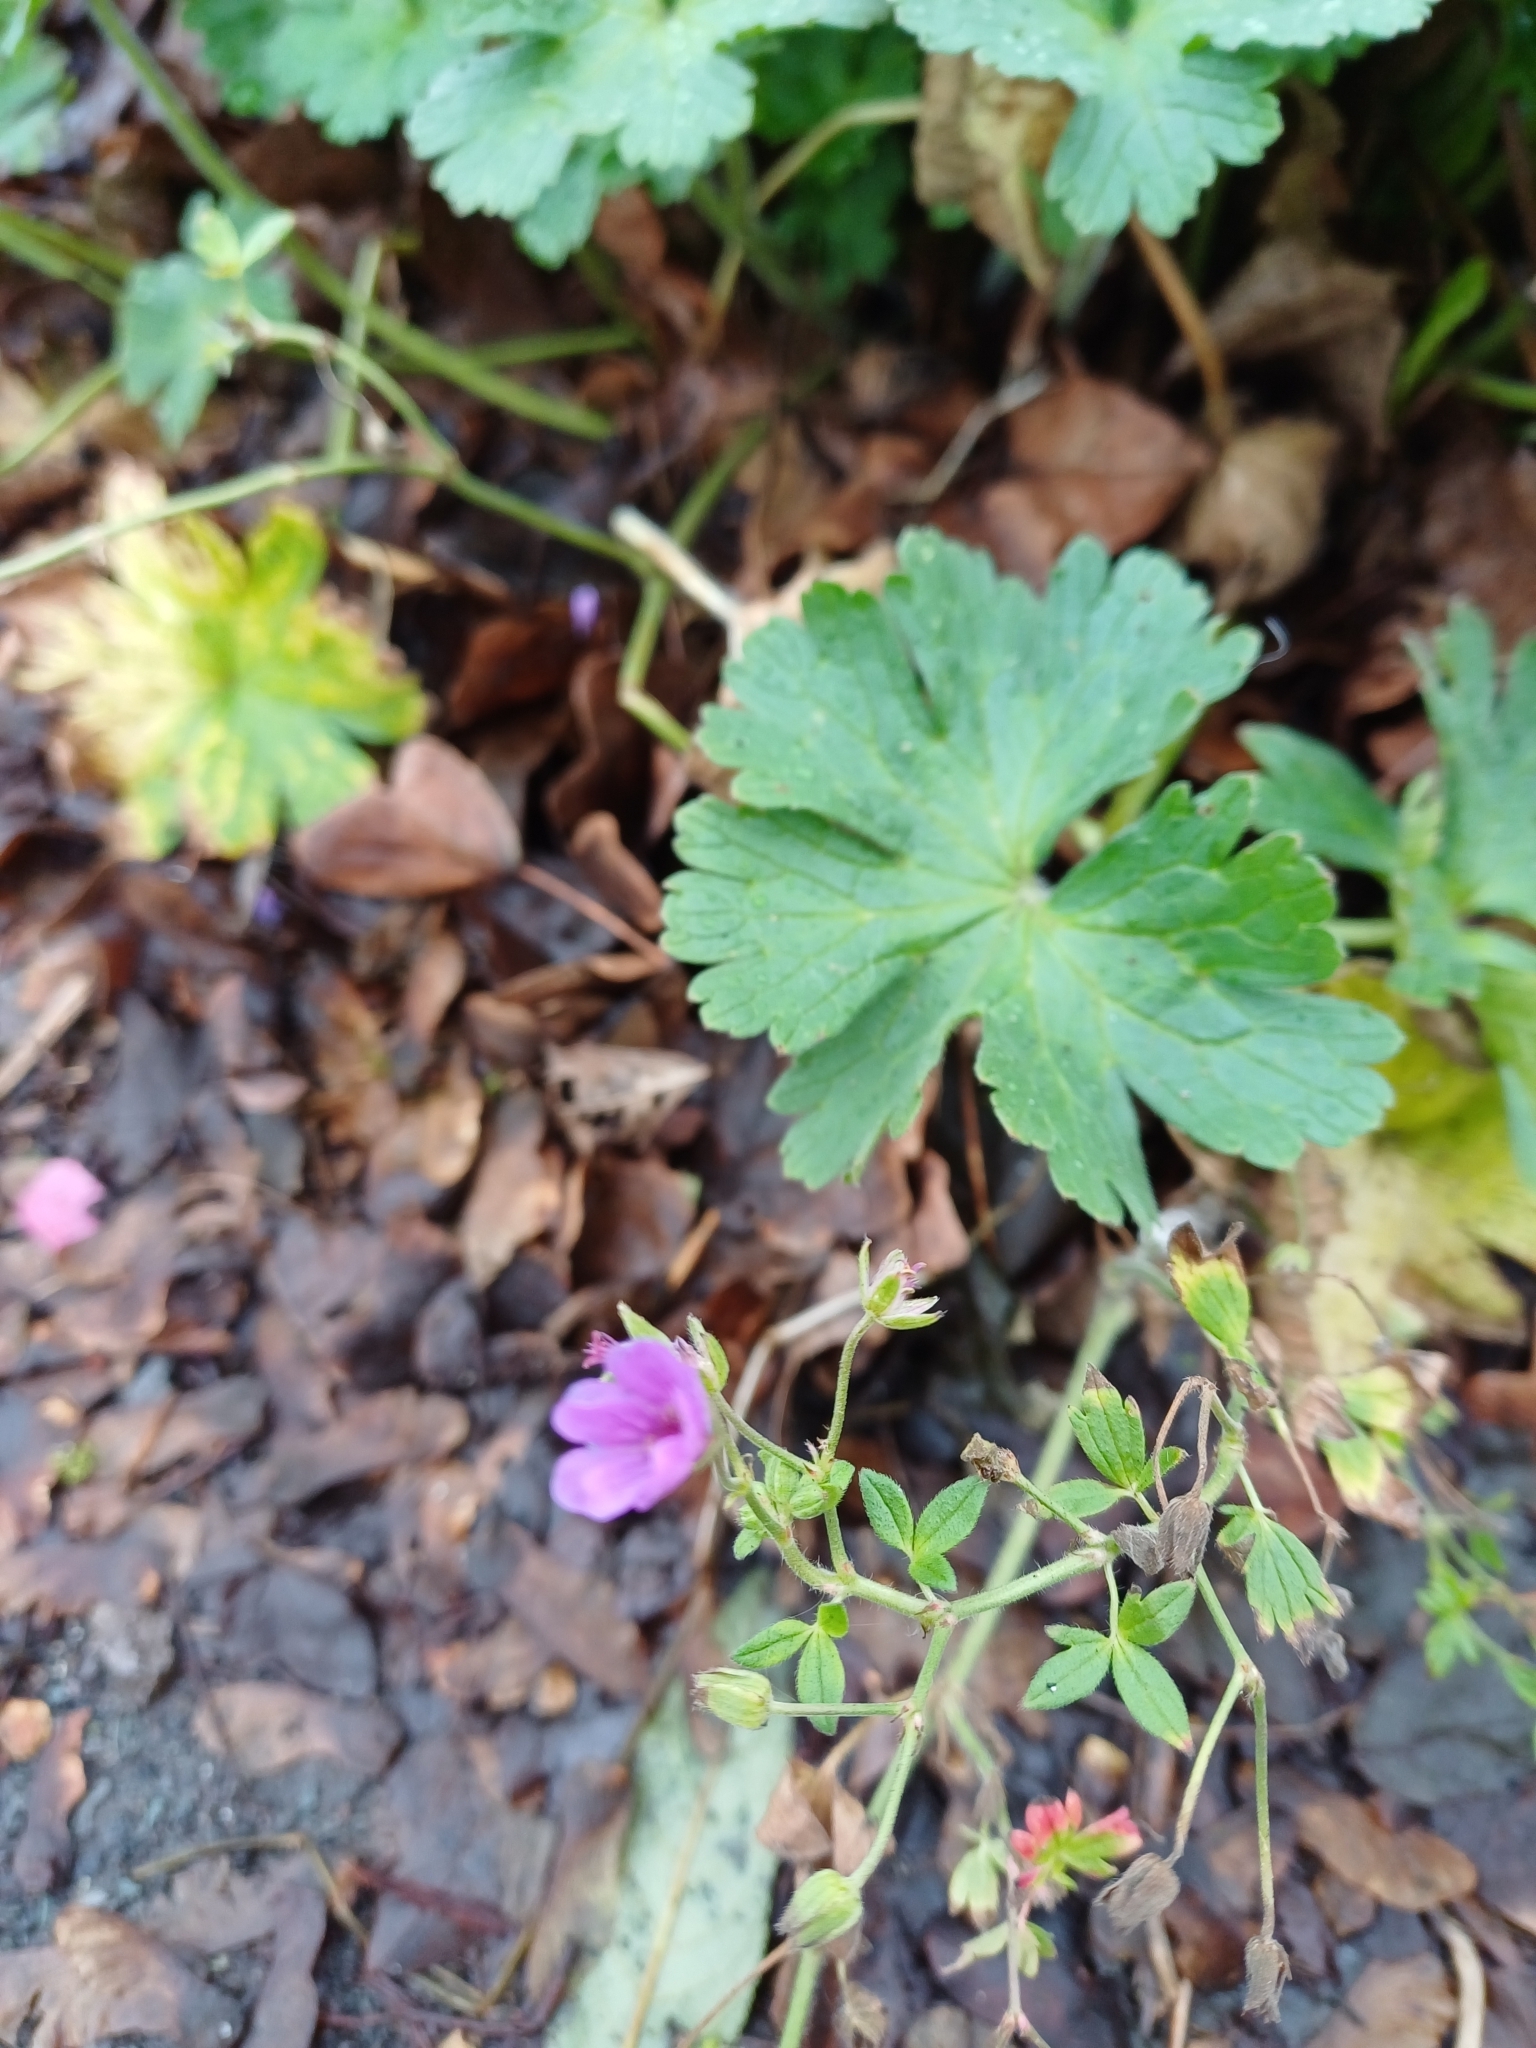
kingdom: Plantae
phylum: Tracheophyta
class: Magnoliopsida
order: Geraniales
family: Geraniaceae
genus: Geranium
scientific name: Geranium pyrenaicum
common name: Hedgerow crane's-bill
